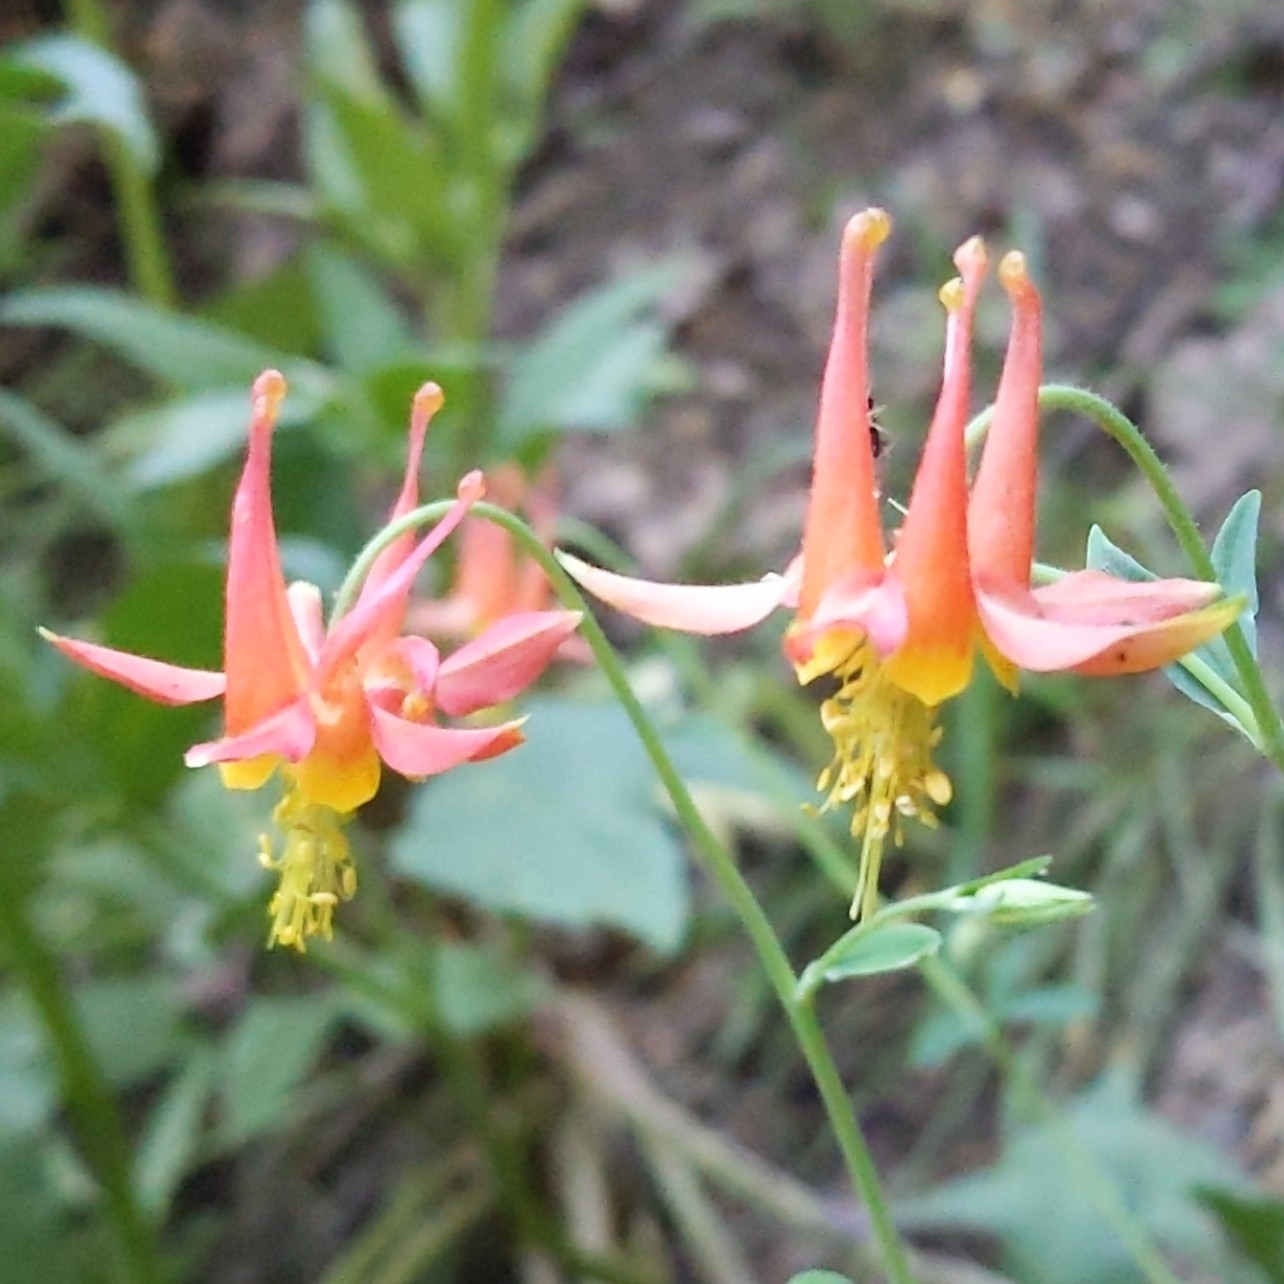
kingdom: Plantae
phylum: Tracheophyta
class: Magnoliopsida
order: Ranunculales
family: Ranunculaceae
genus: Aquilegia
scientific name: Aquilegia formosa
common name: Sitka columbine
